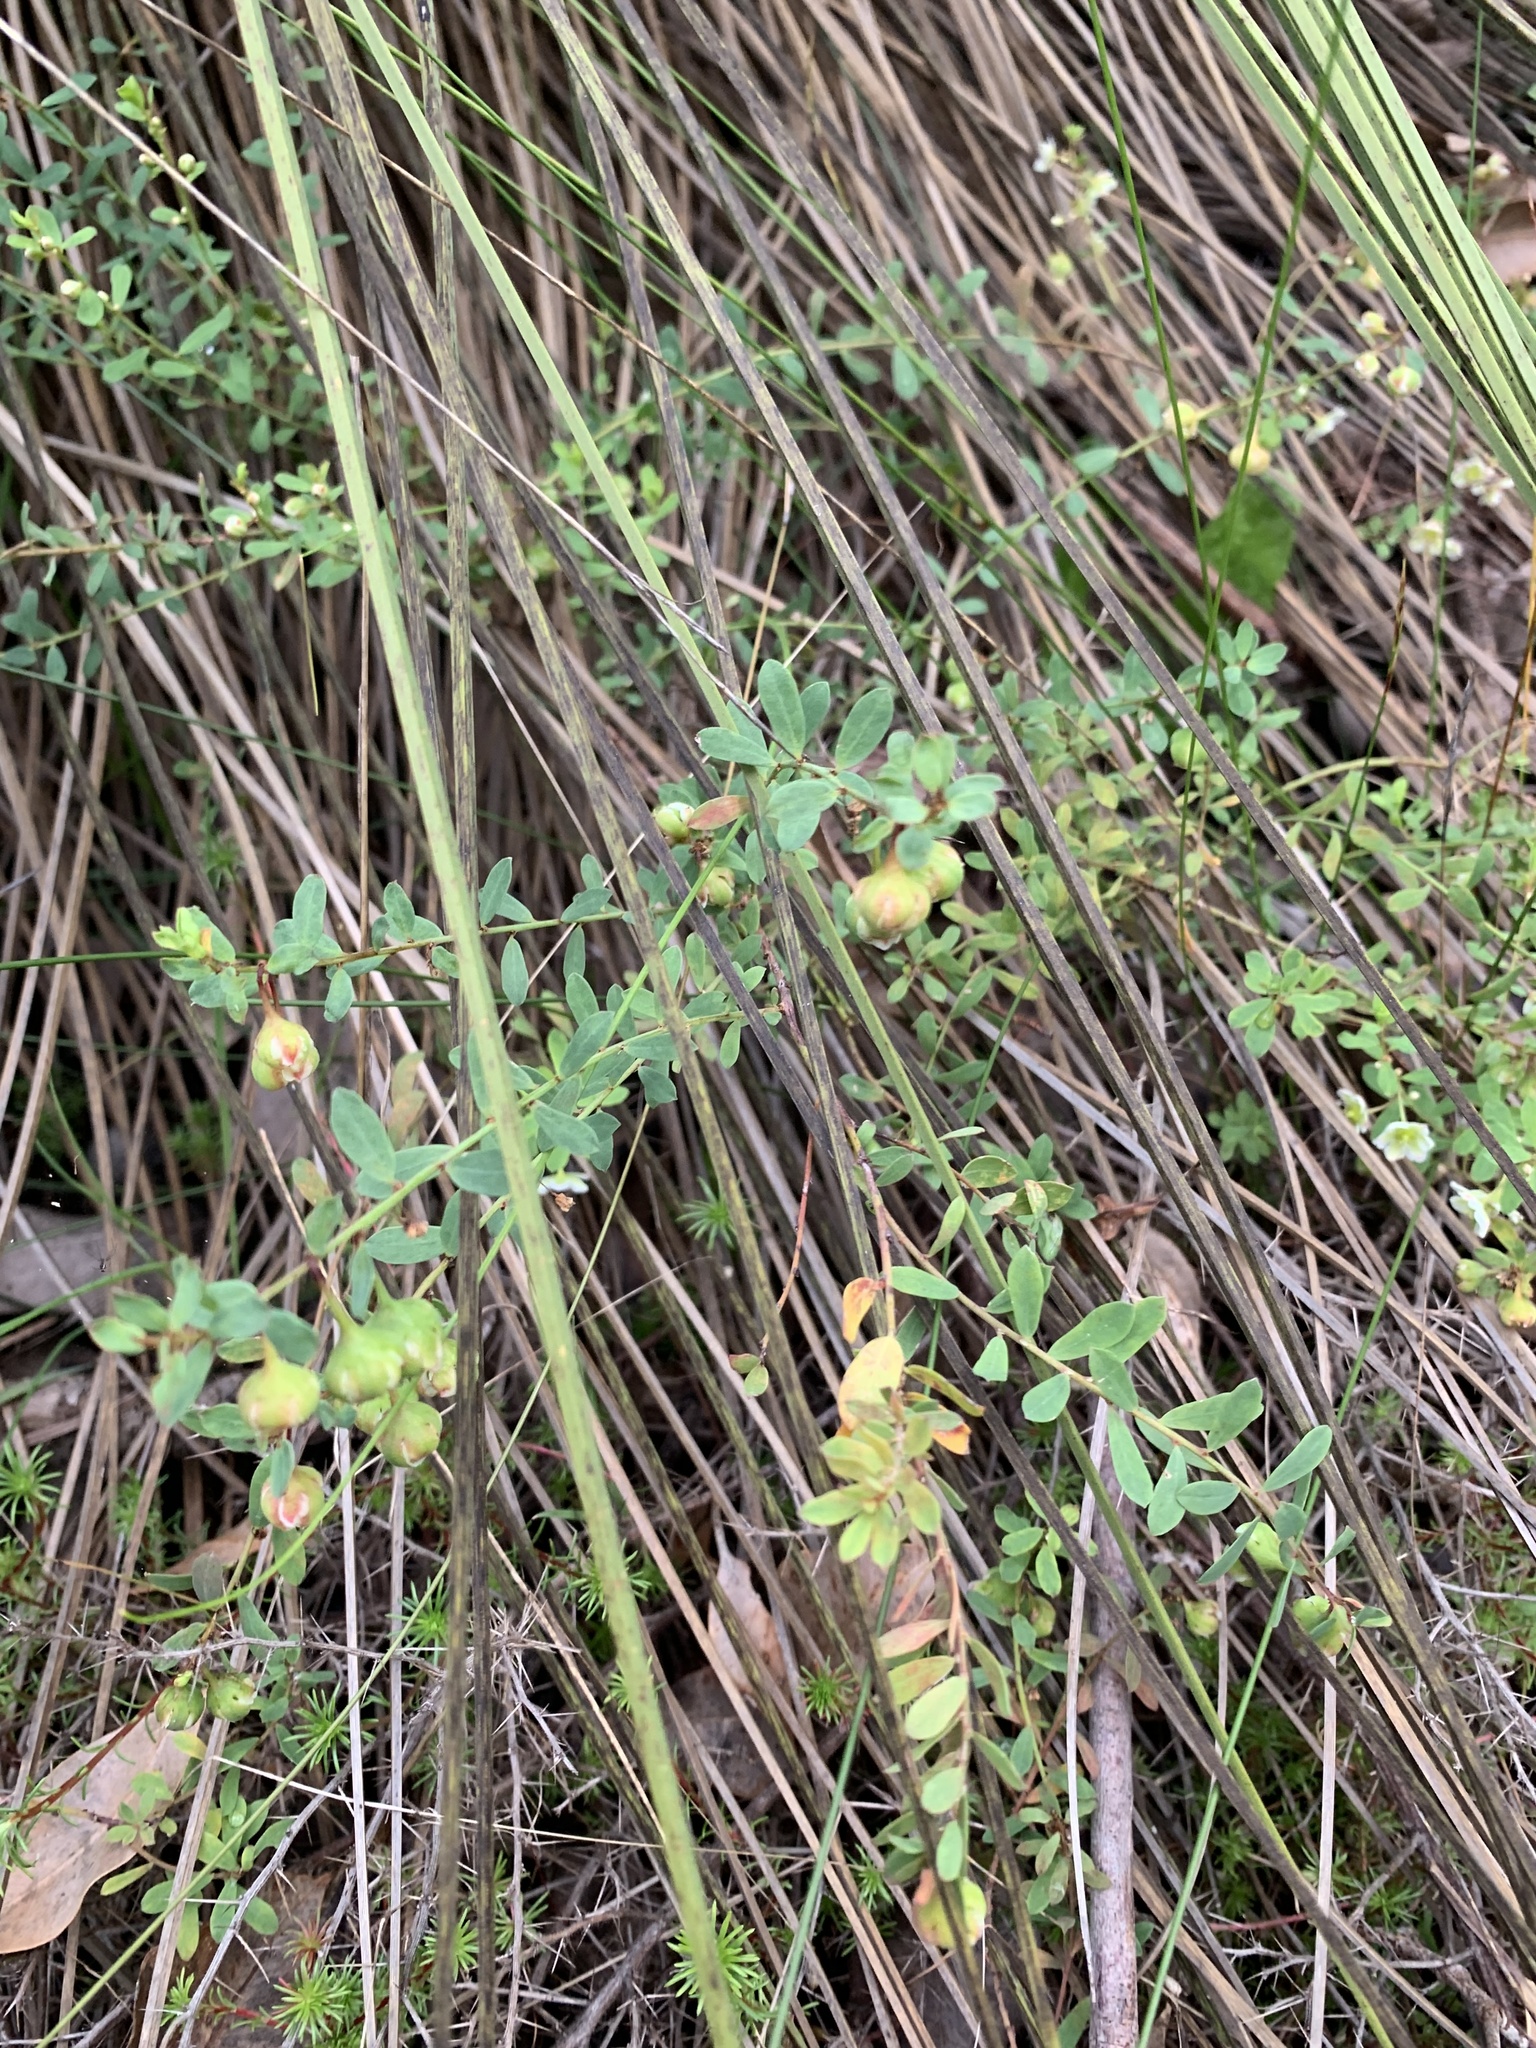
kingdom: Plantae
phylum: Tracheophyta
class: Magnoliopsida
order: Malpighiales
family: Phyllanthaceae
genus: Phyllanthus
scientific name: Phyllanthus calycinus
